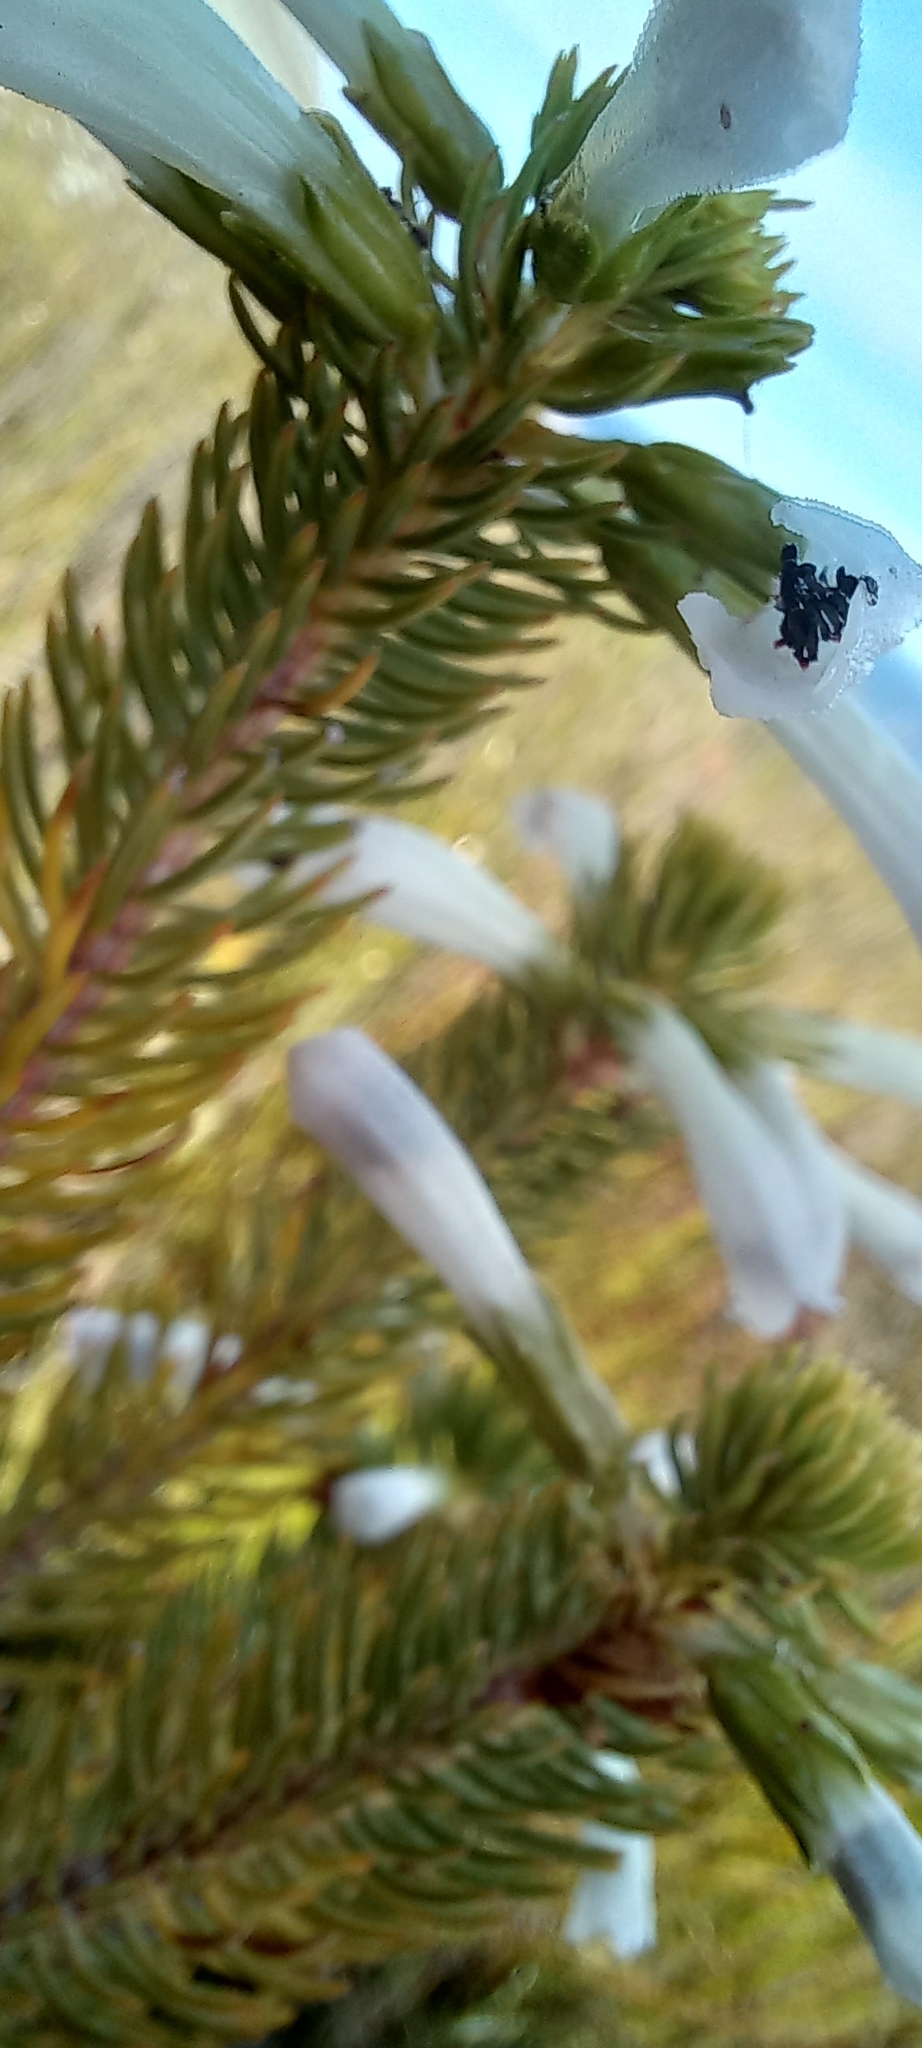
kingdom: Plantae
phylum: Tracheophyta
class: Magnoliopsida
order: Ericales
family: Ericaceae
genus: Erica
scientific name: Erica thomae
